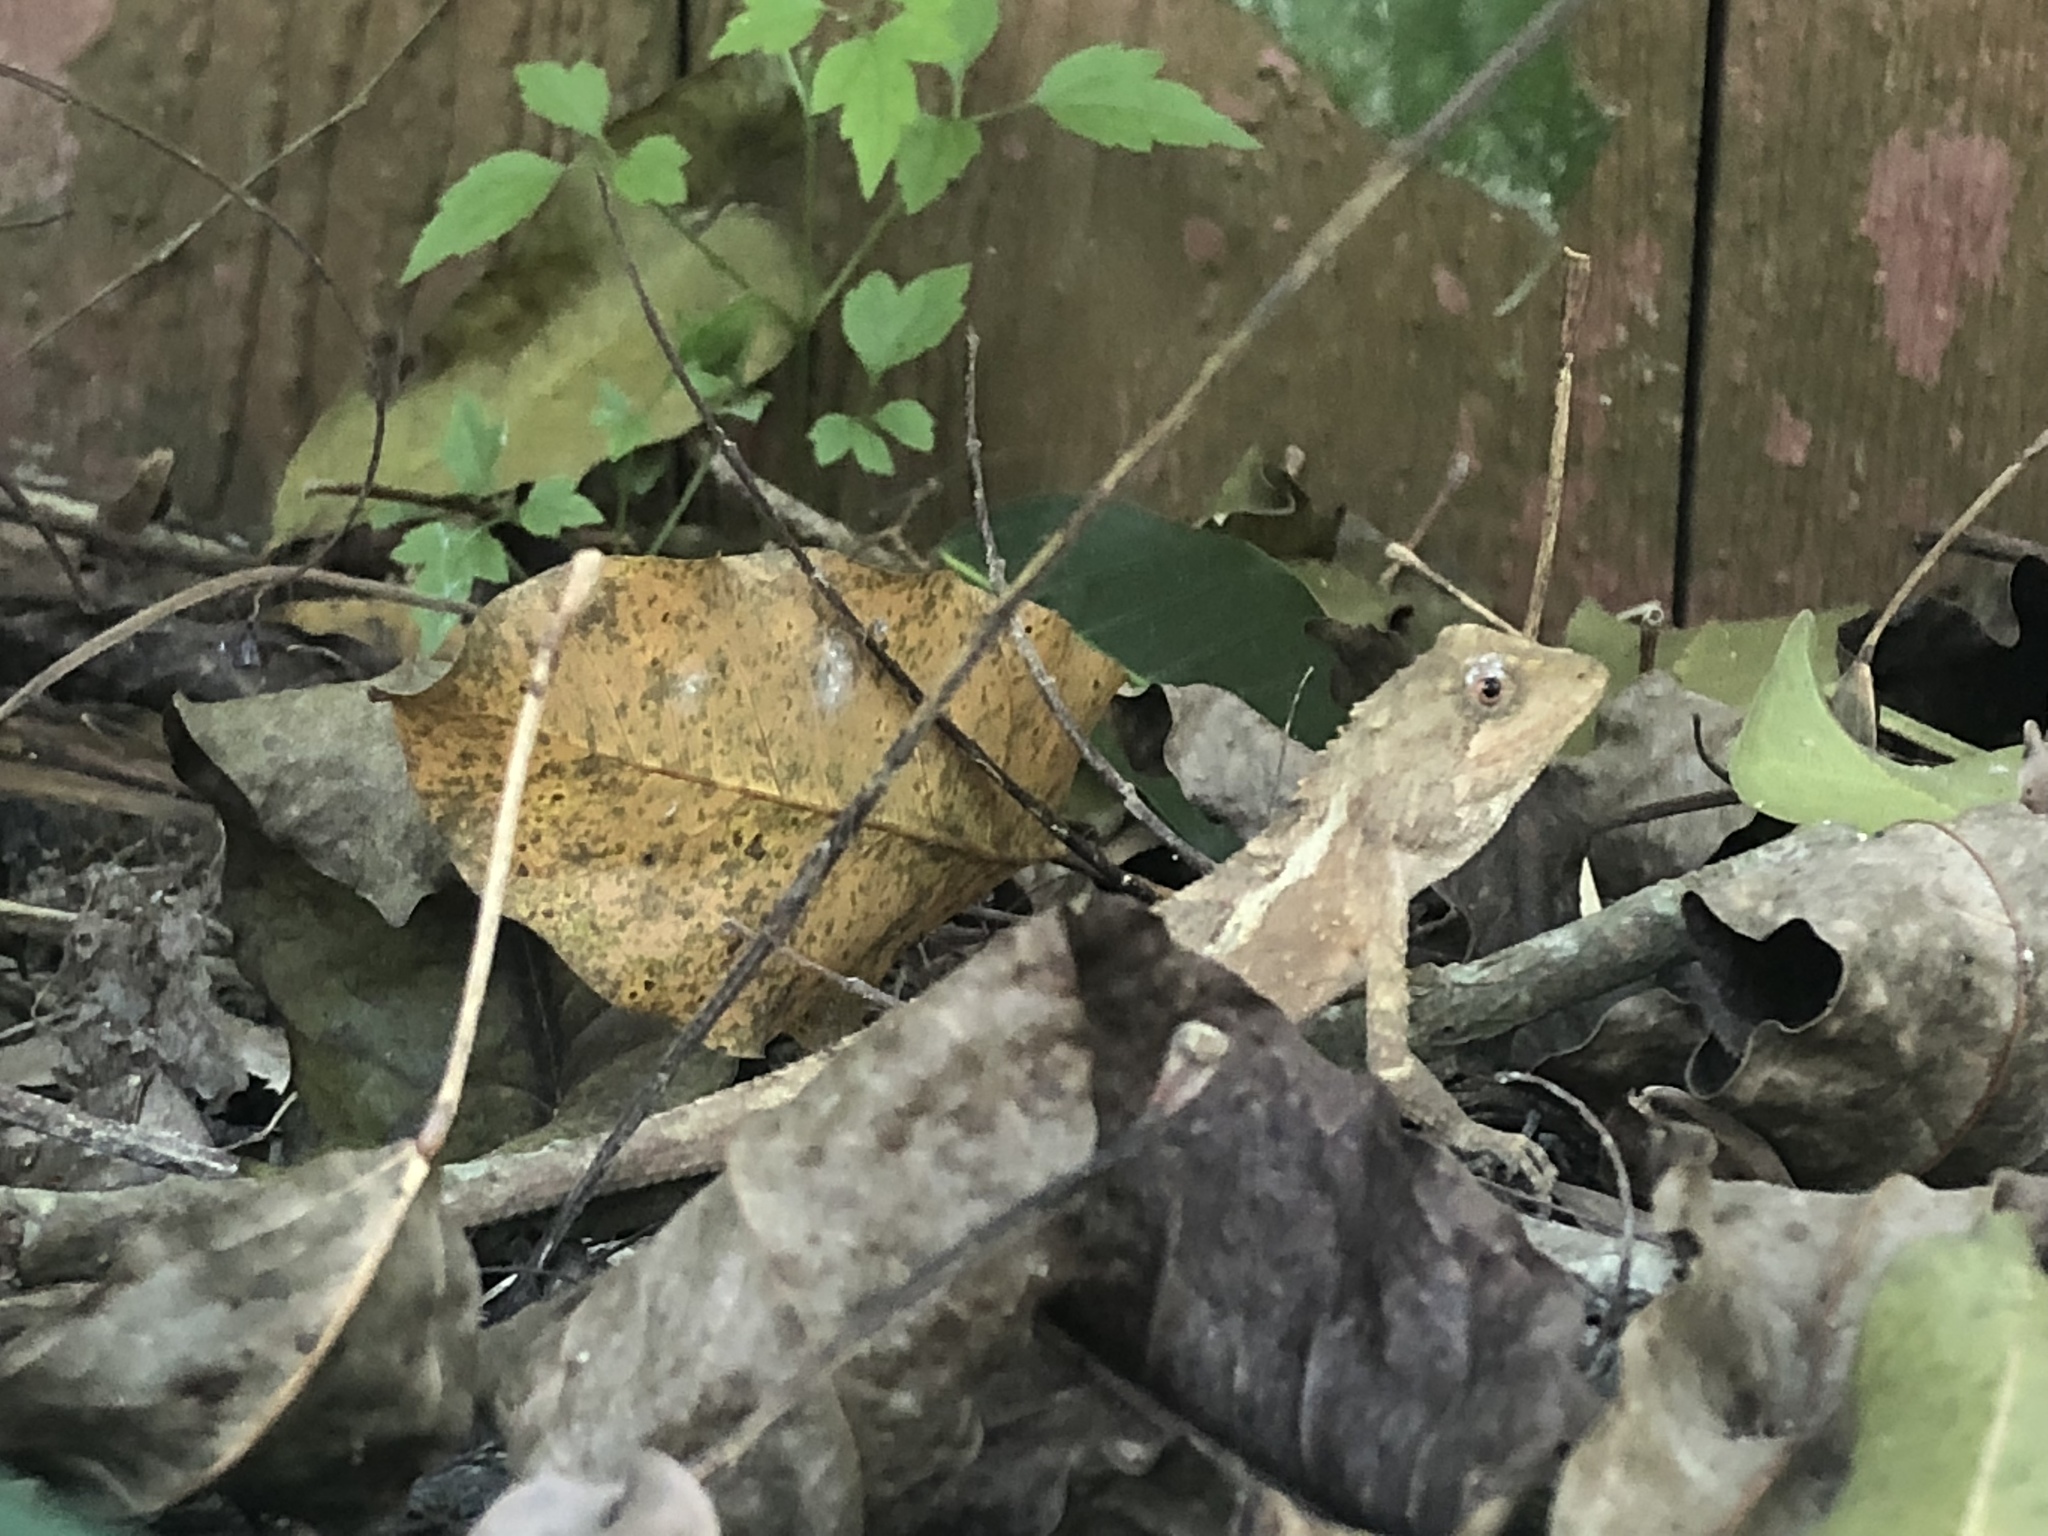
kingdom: Animalia
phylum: Chordata
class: Squamata
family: Agamidae
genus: Diploderma
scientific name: Diploderma swinhonis
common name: Taiwan japalure
